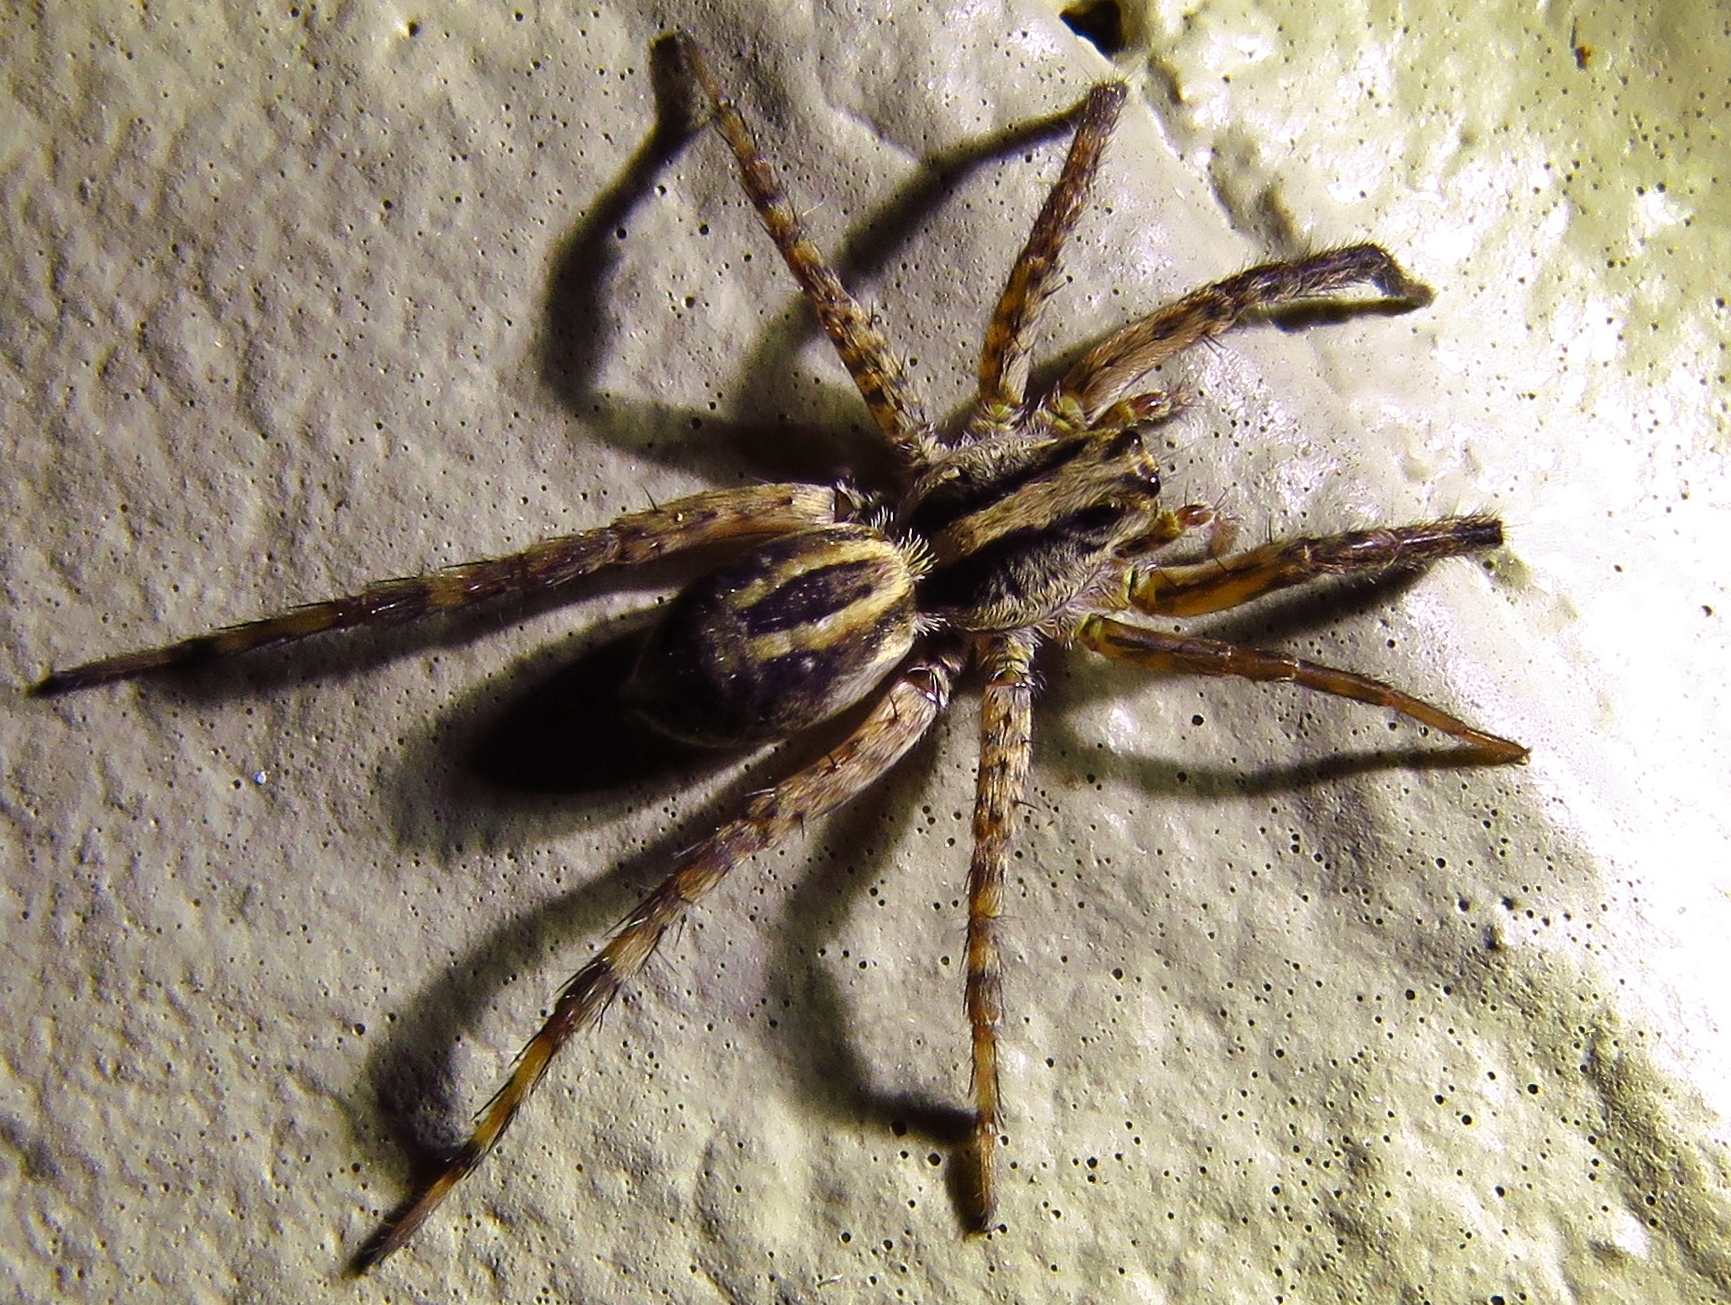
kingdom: Animalia
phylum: Arthropoda
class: Arachnida
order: Araneae
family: Lycosidae
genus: Schizocosa
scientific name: Schizocosa avida
